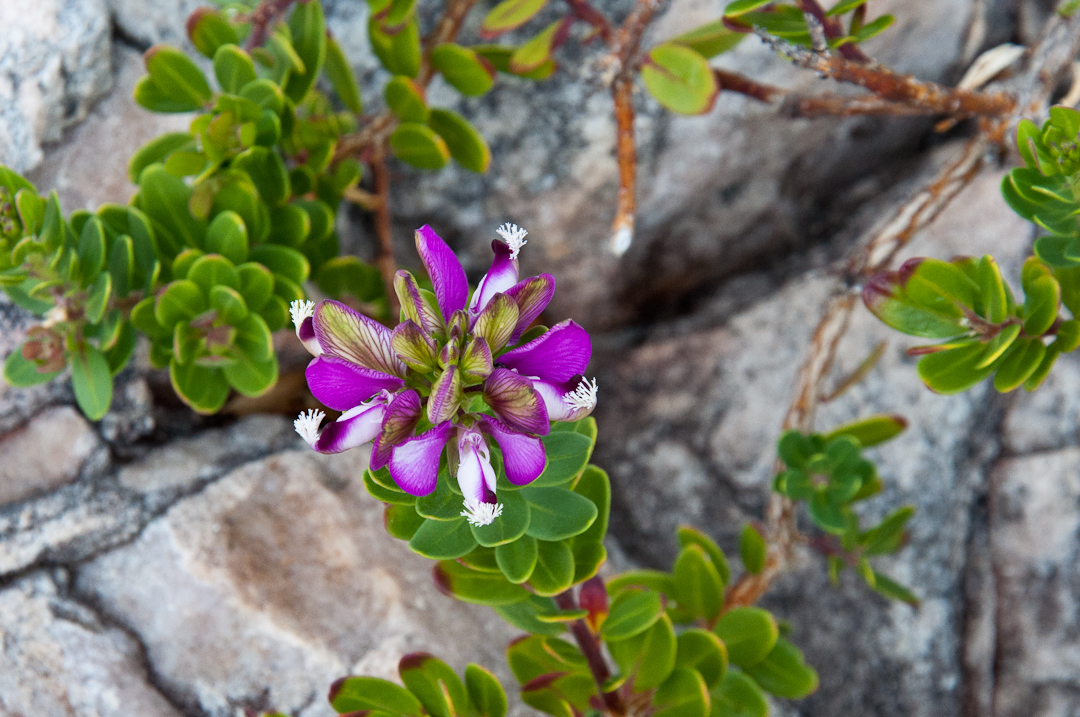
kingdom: Plantae
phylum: Tracheophyta
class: Magnoliopsida
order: Fabales
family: Polygalaceae
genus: Polygala
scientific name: Polygala myrtifolia
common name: Myrtle-leaf milkwort
